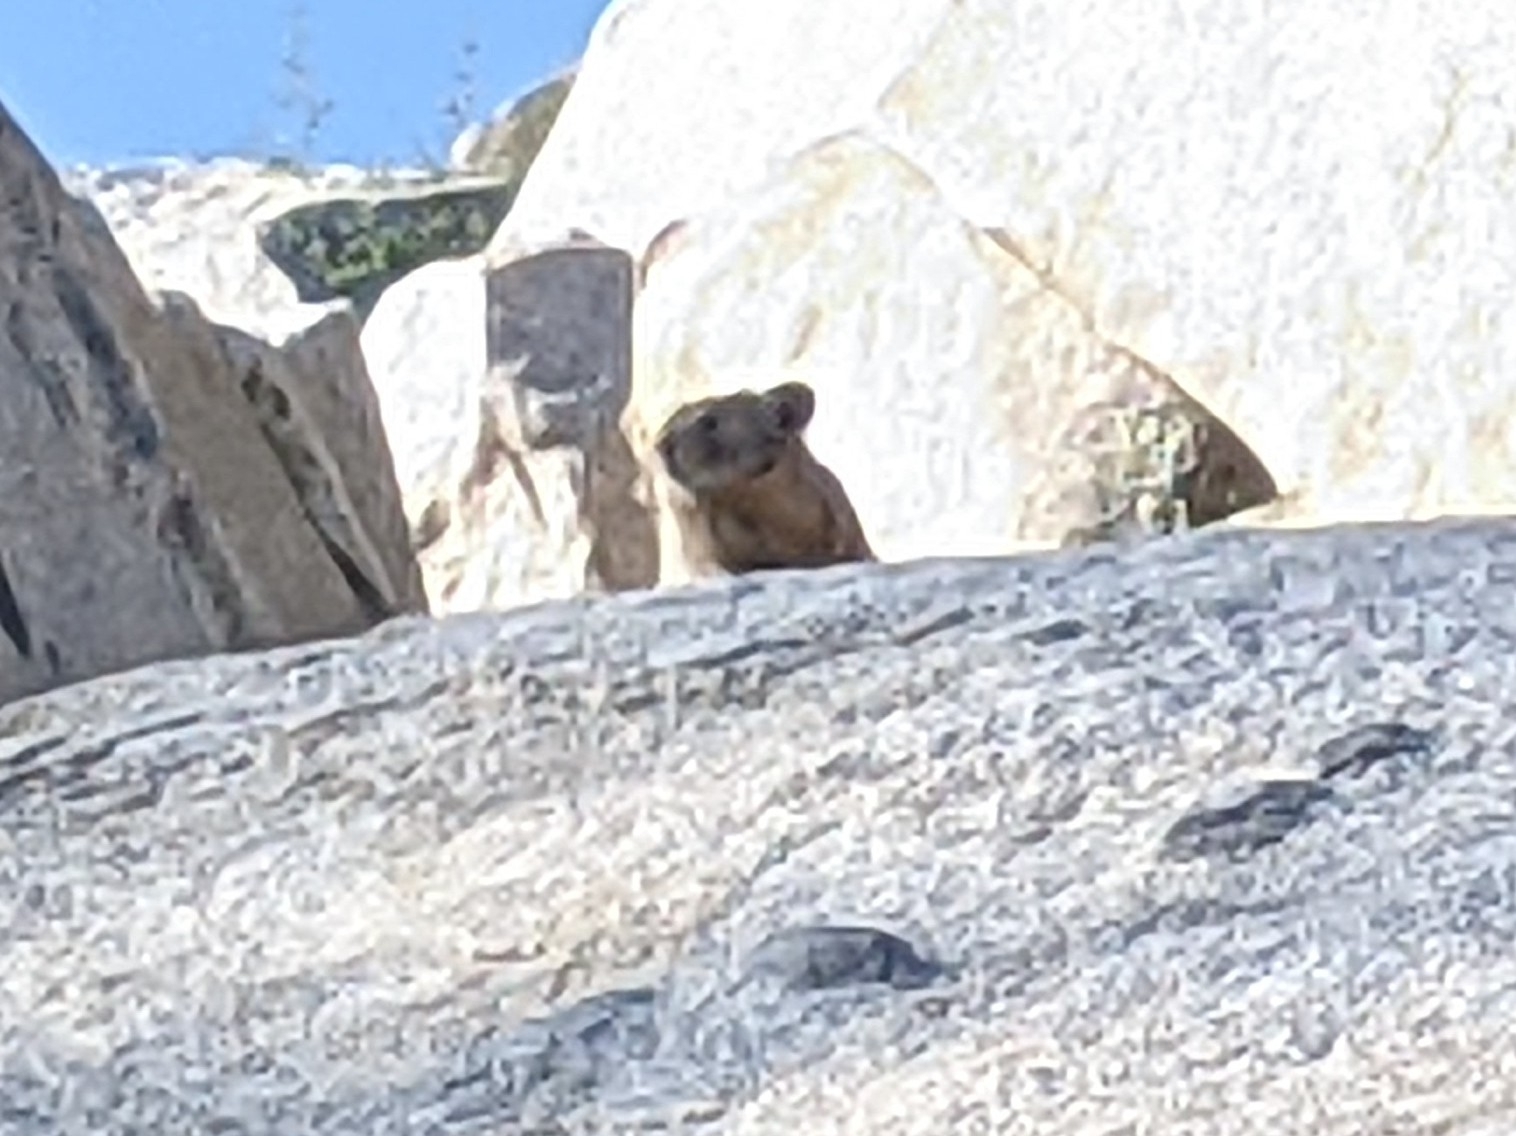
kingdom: Animalia
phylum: Chordata
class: Mammalia
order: Lagomorpha
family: Ochotonidae
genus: Ochotona
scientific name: Ochotona princeps
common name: American pika
